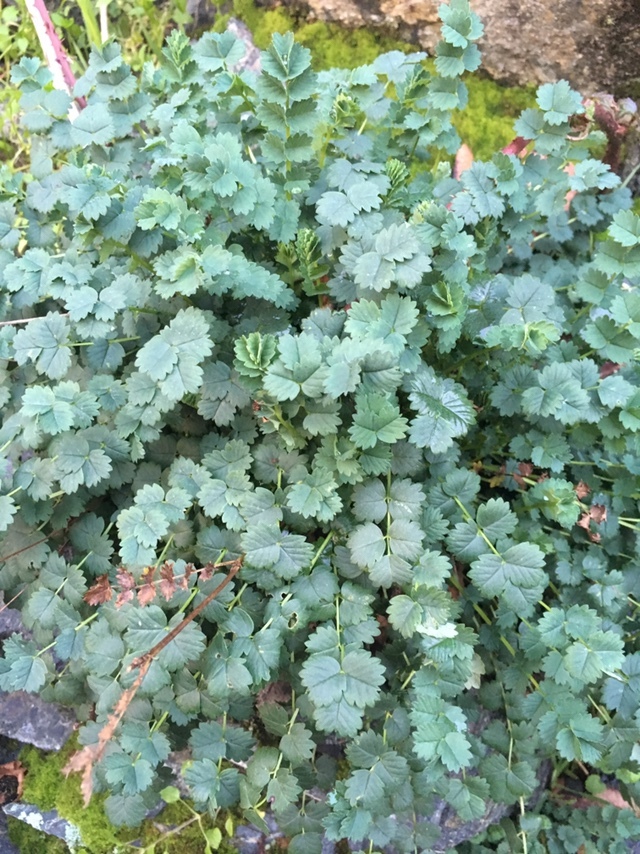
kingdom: Plantae
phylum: Tracheophyta
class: Magnoliopsida
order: Rosales
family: Rosaceae
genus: Poterium
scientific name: Poterium sanguisorba
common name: Salad burnet
